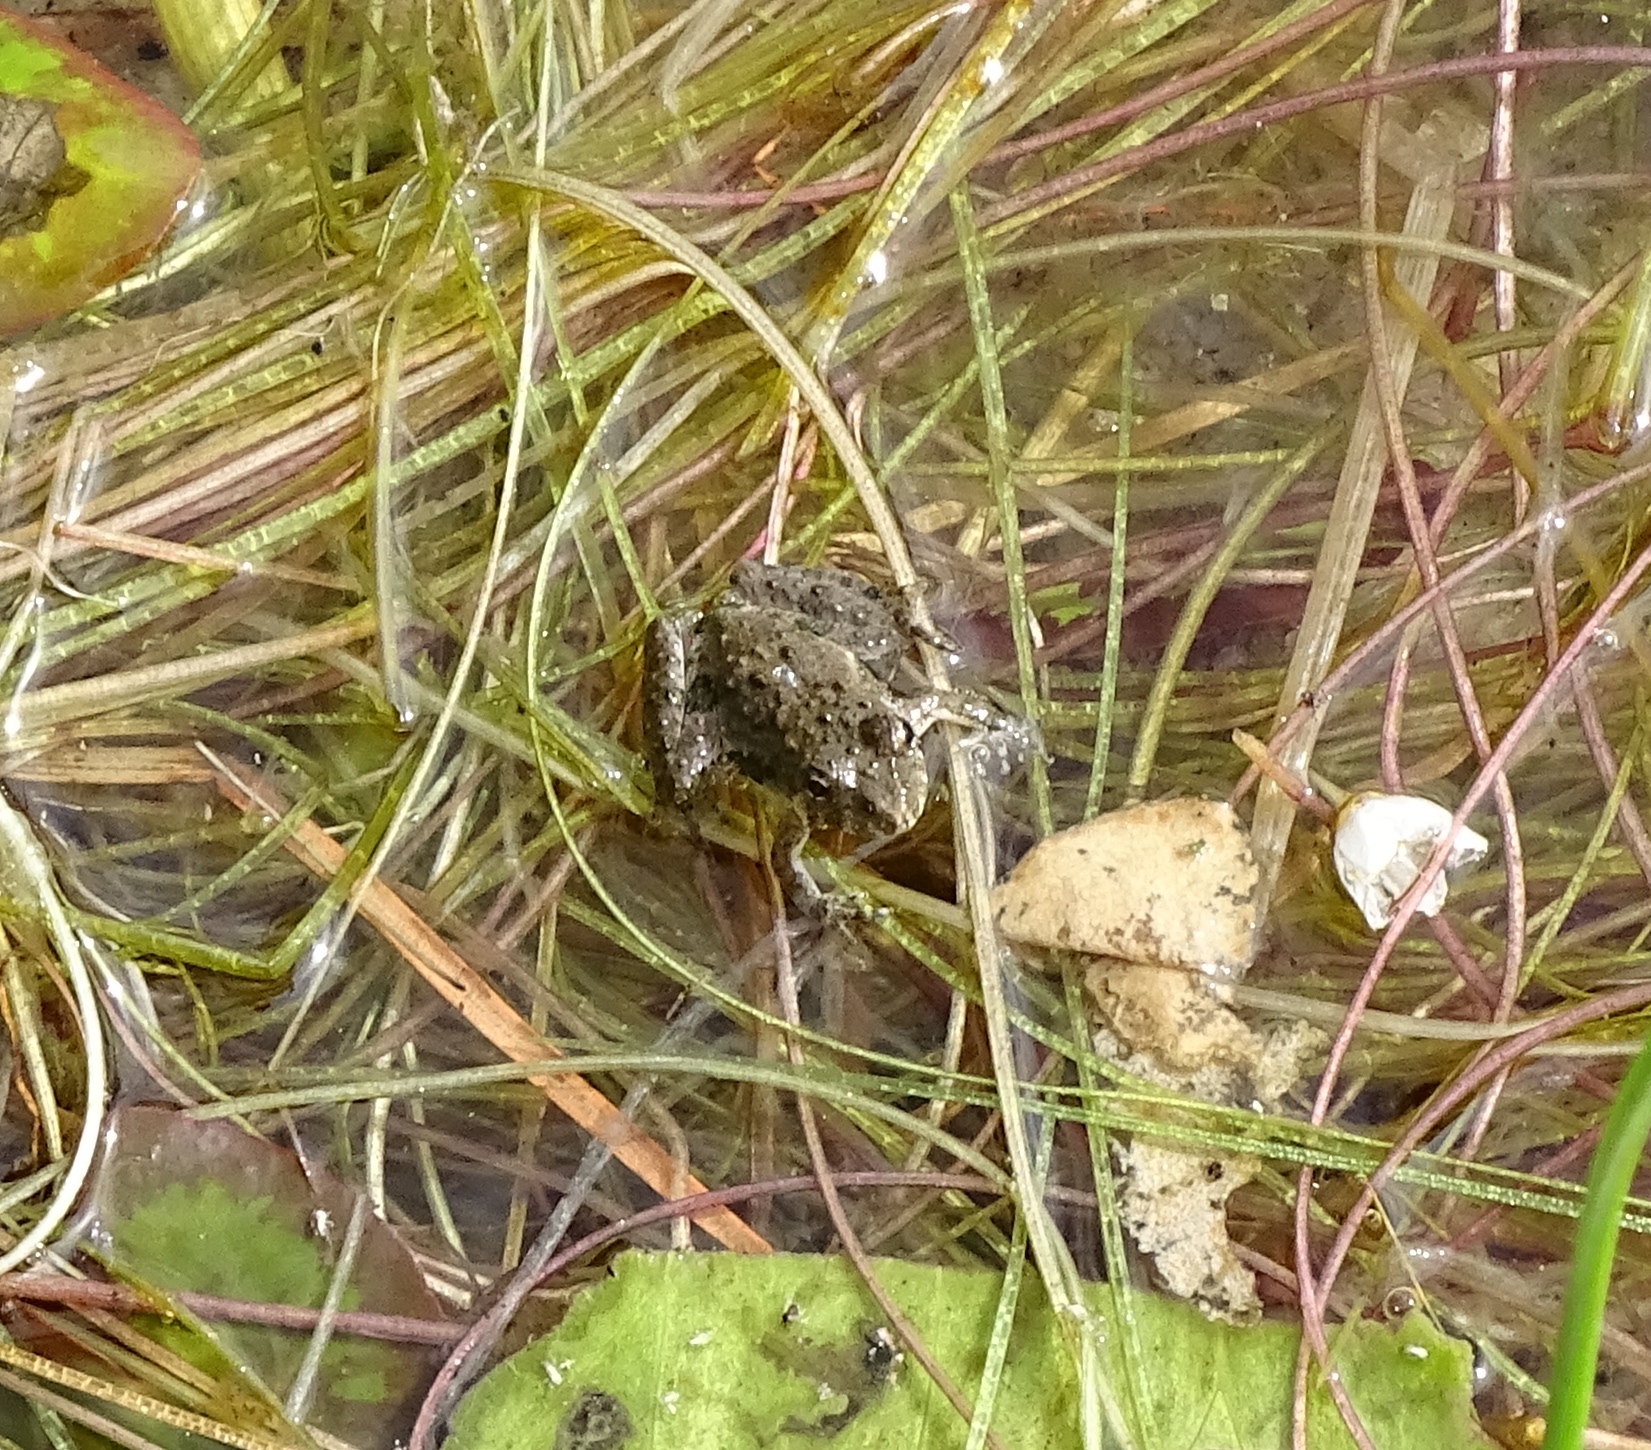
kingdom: Animalia
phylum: Chordata
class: Amphibia
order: Anura
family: Hylidae
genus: Acris
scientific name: Acris crepitans
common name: Northern cricket frog
